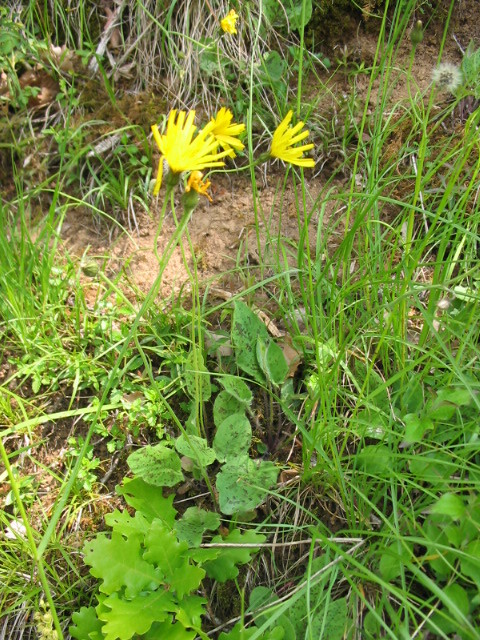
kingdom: Plantae
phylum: Tracheophyta
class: Magnoliopsida
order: Asterales
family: Asteraceae
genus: Trommsdorffia
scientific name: Trommsdorffia maculata
